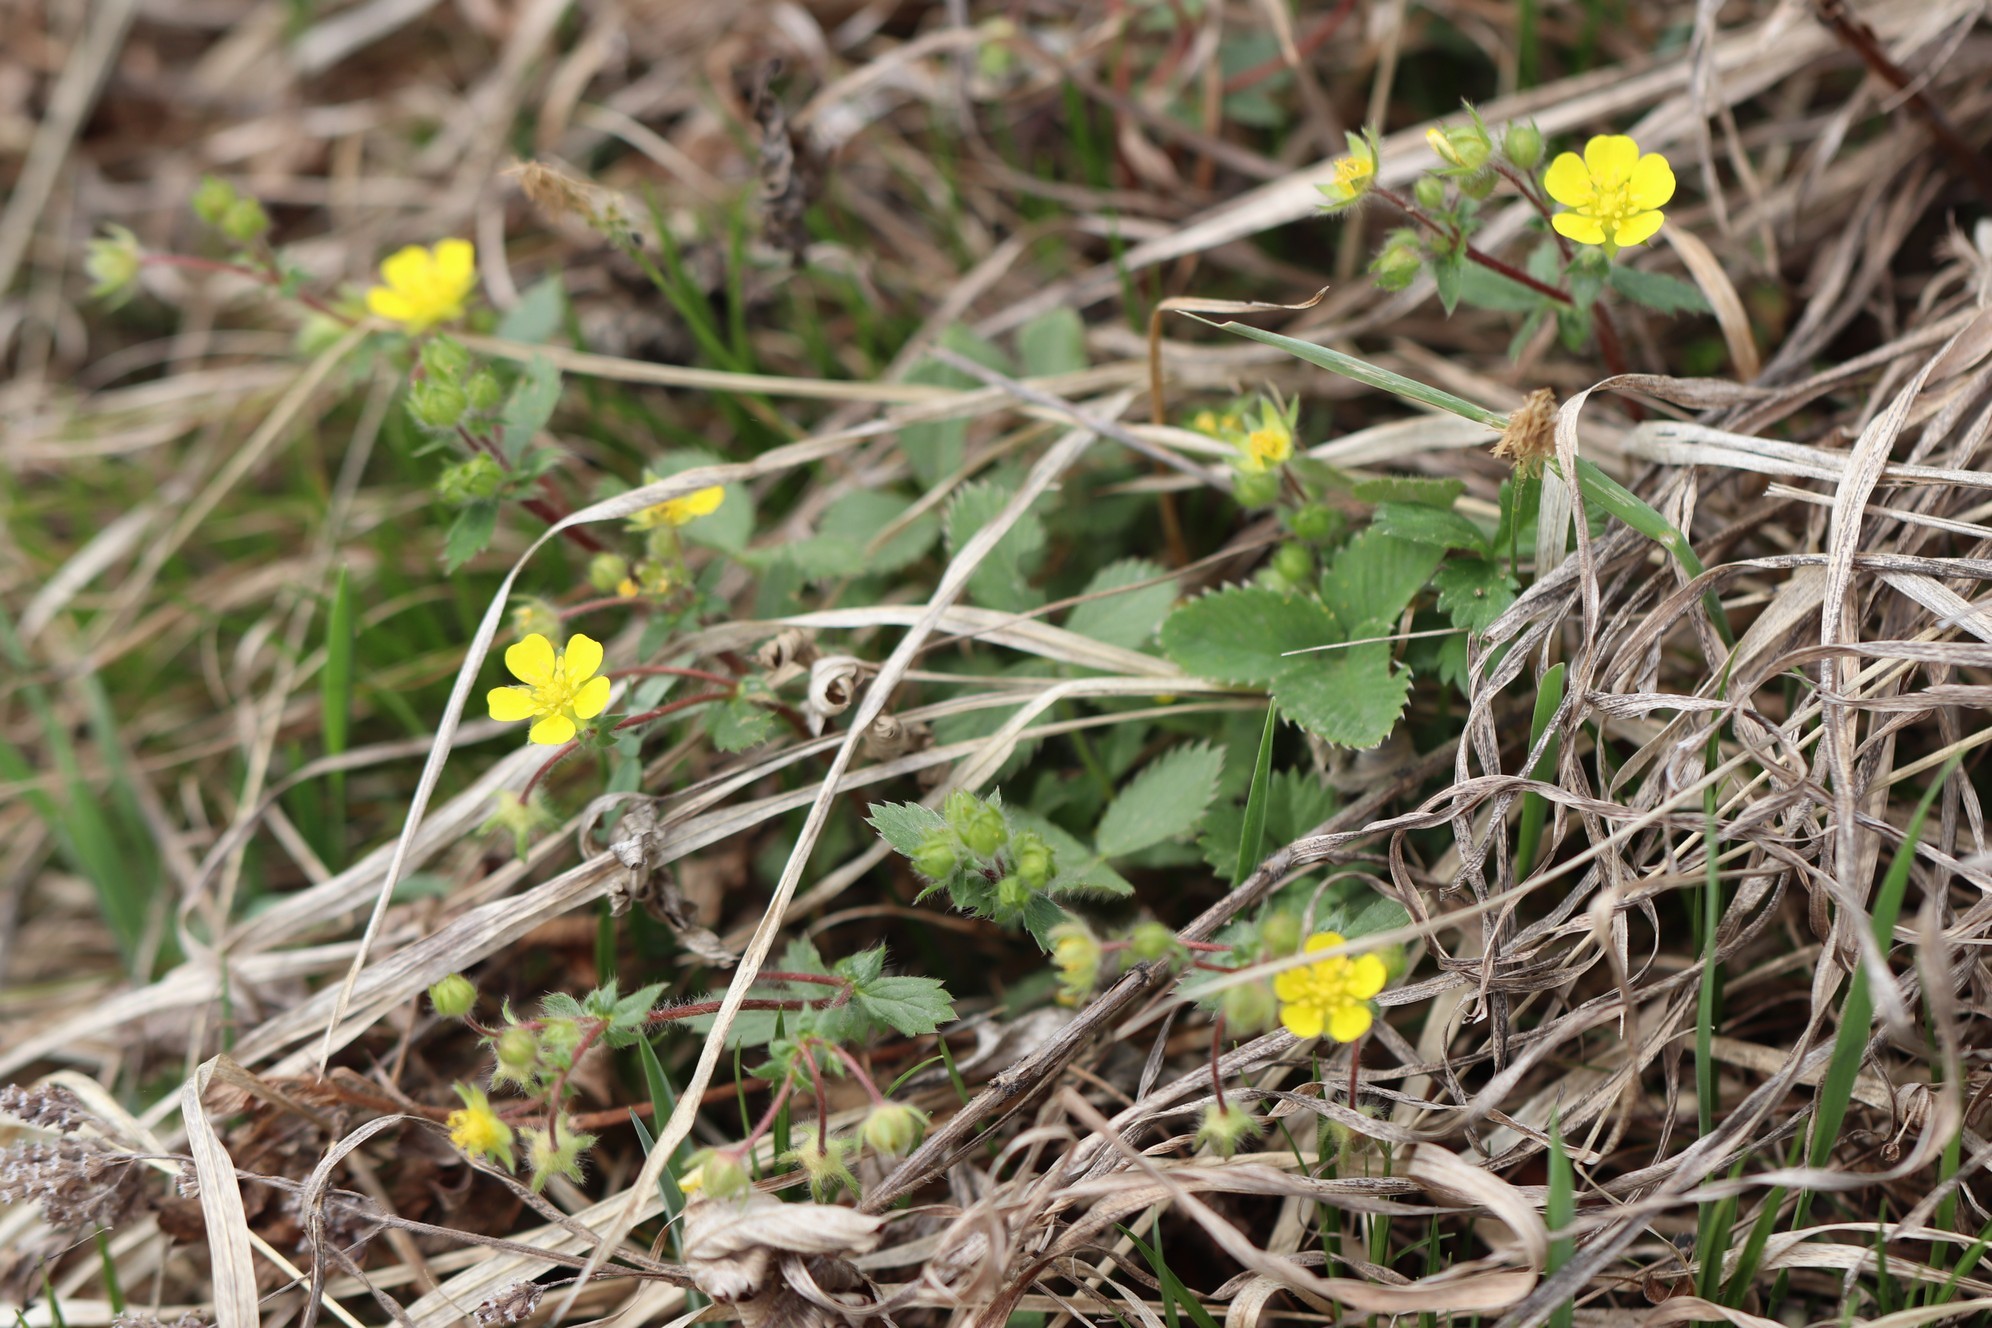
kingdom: Plantae
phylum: Tracheophyta
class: Magnoliopsida
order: Rosales
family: Rosaceae
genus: Potentilla
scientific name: Potentilla fragarioides
